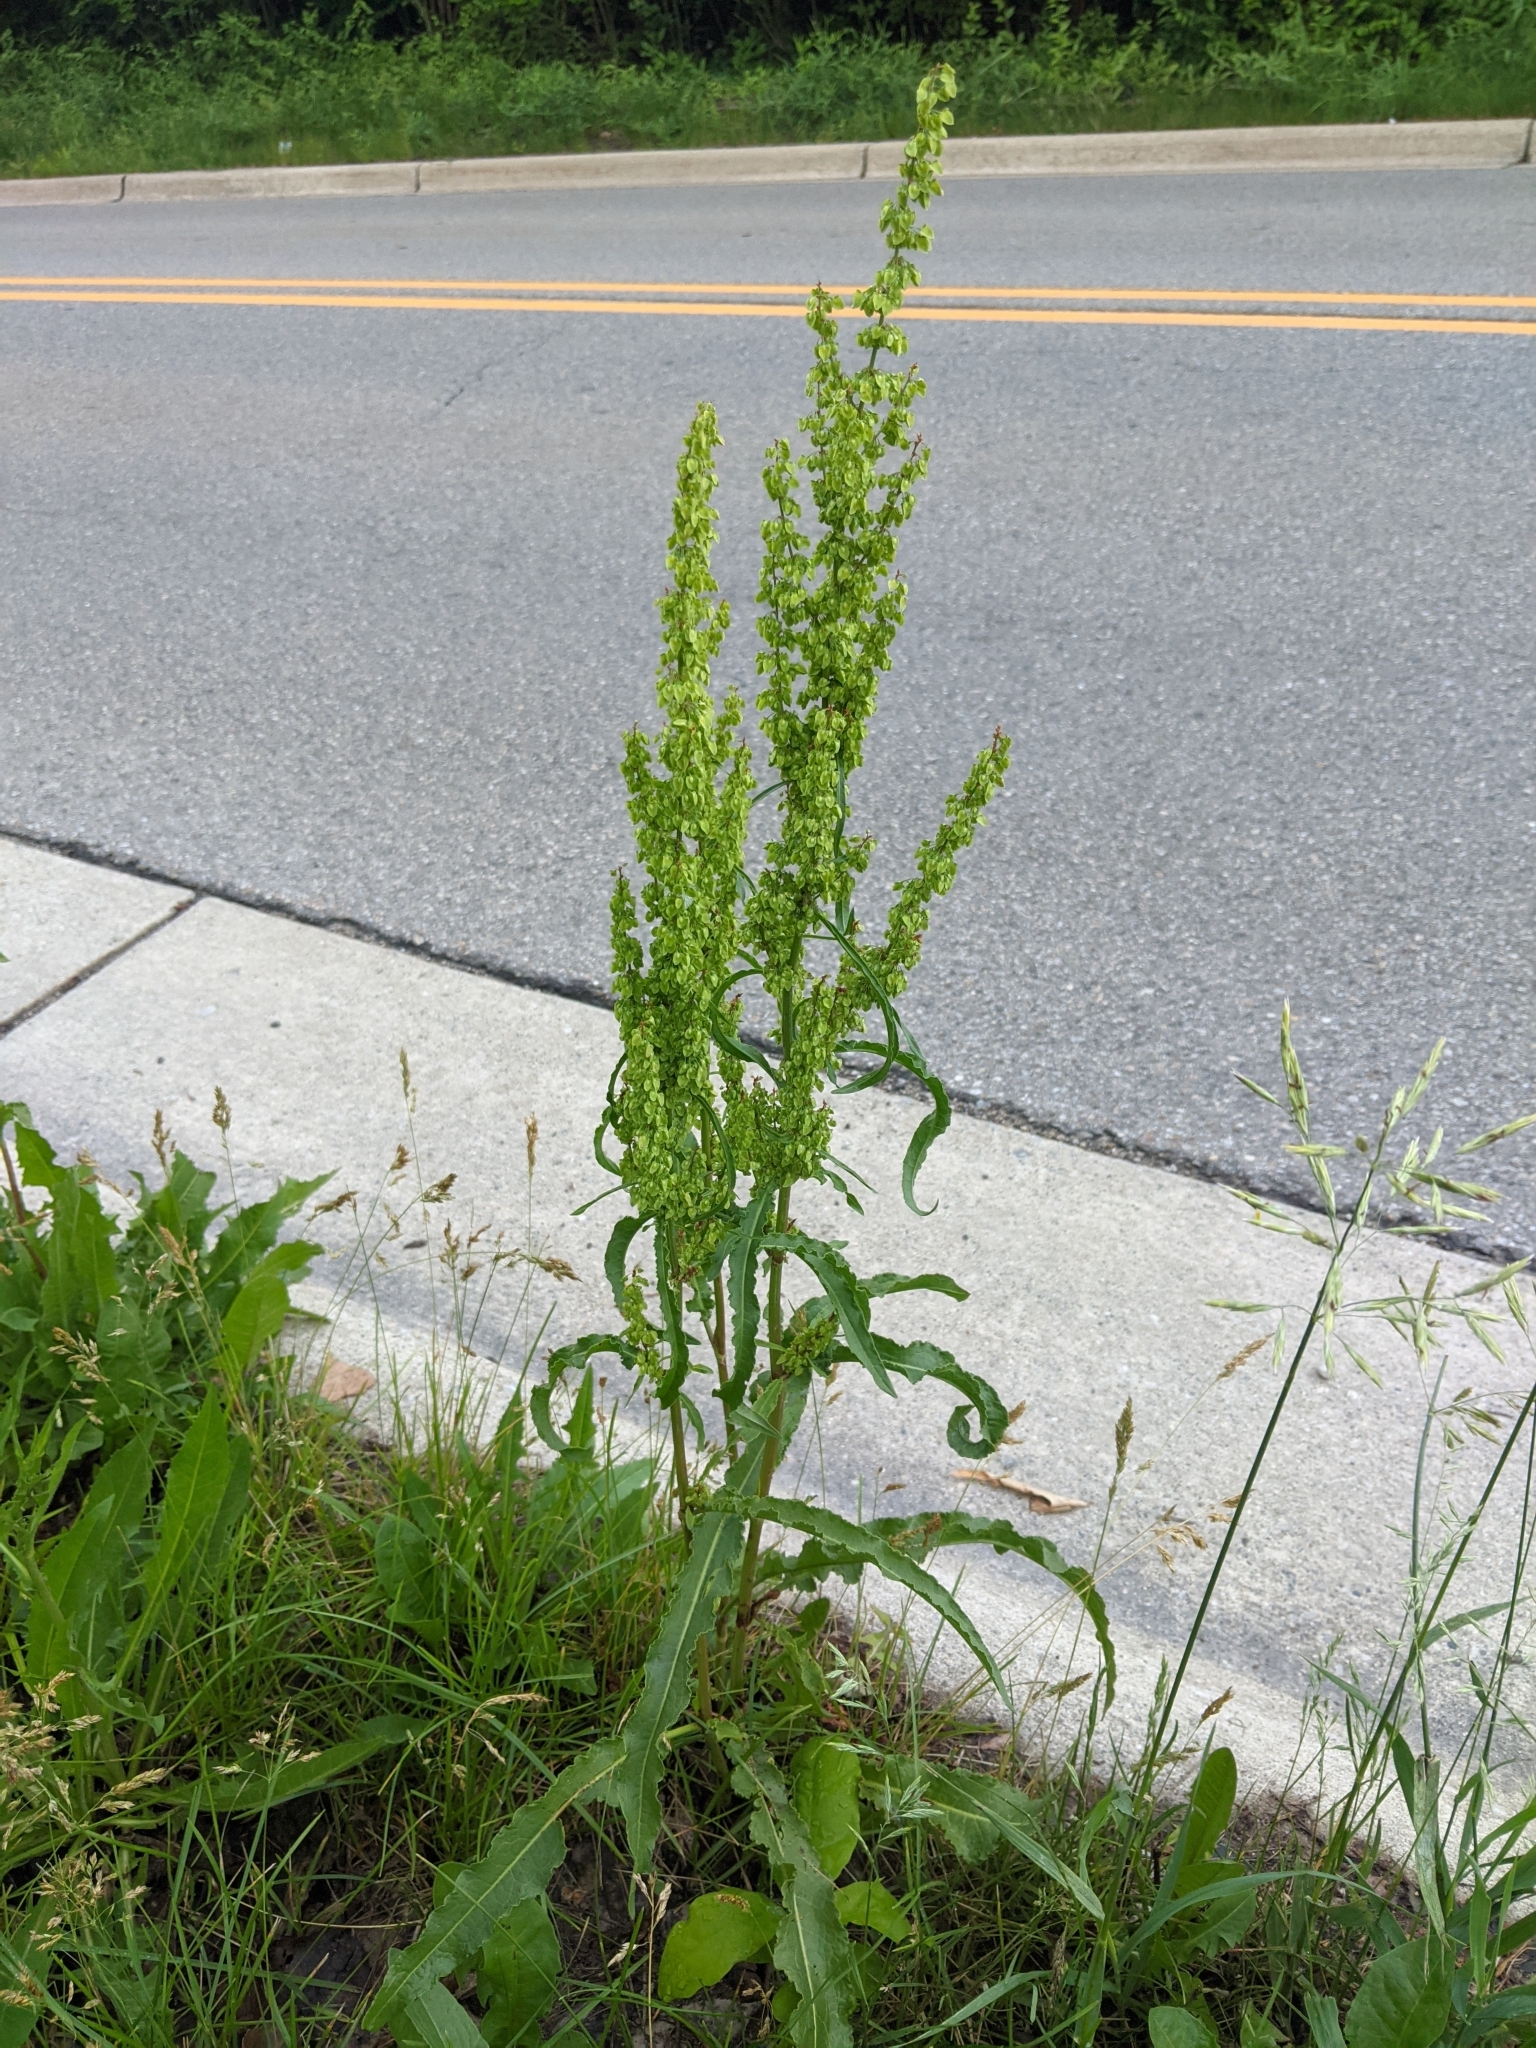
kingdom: Plantae
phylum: Tracheophyta
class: Magnoliopsida
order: Caryophyllales
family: Polygonaceae
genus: Rumex
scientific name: Rumex crispus
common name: Curled dock
